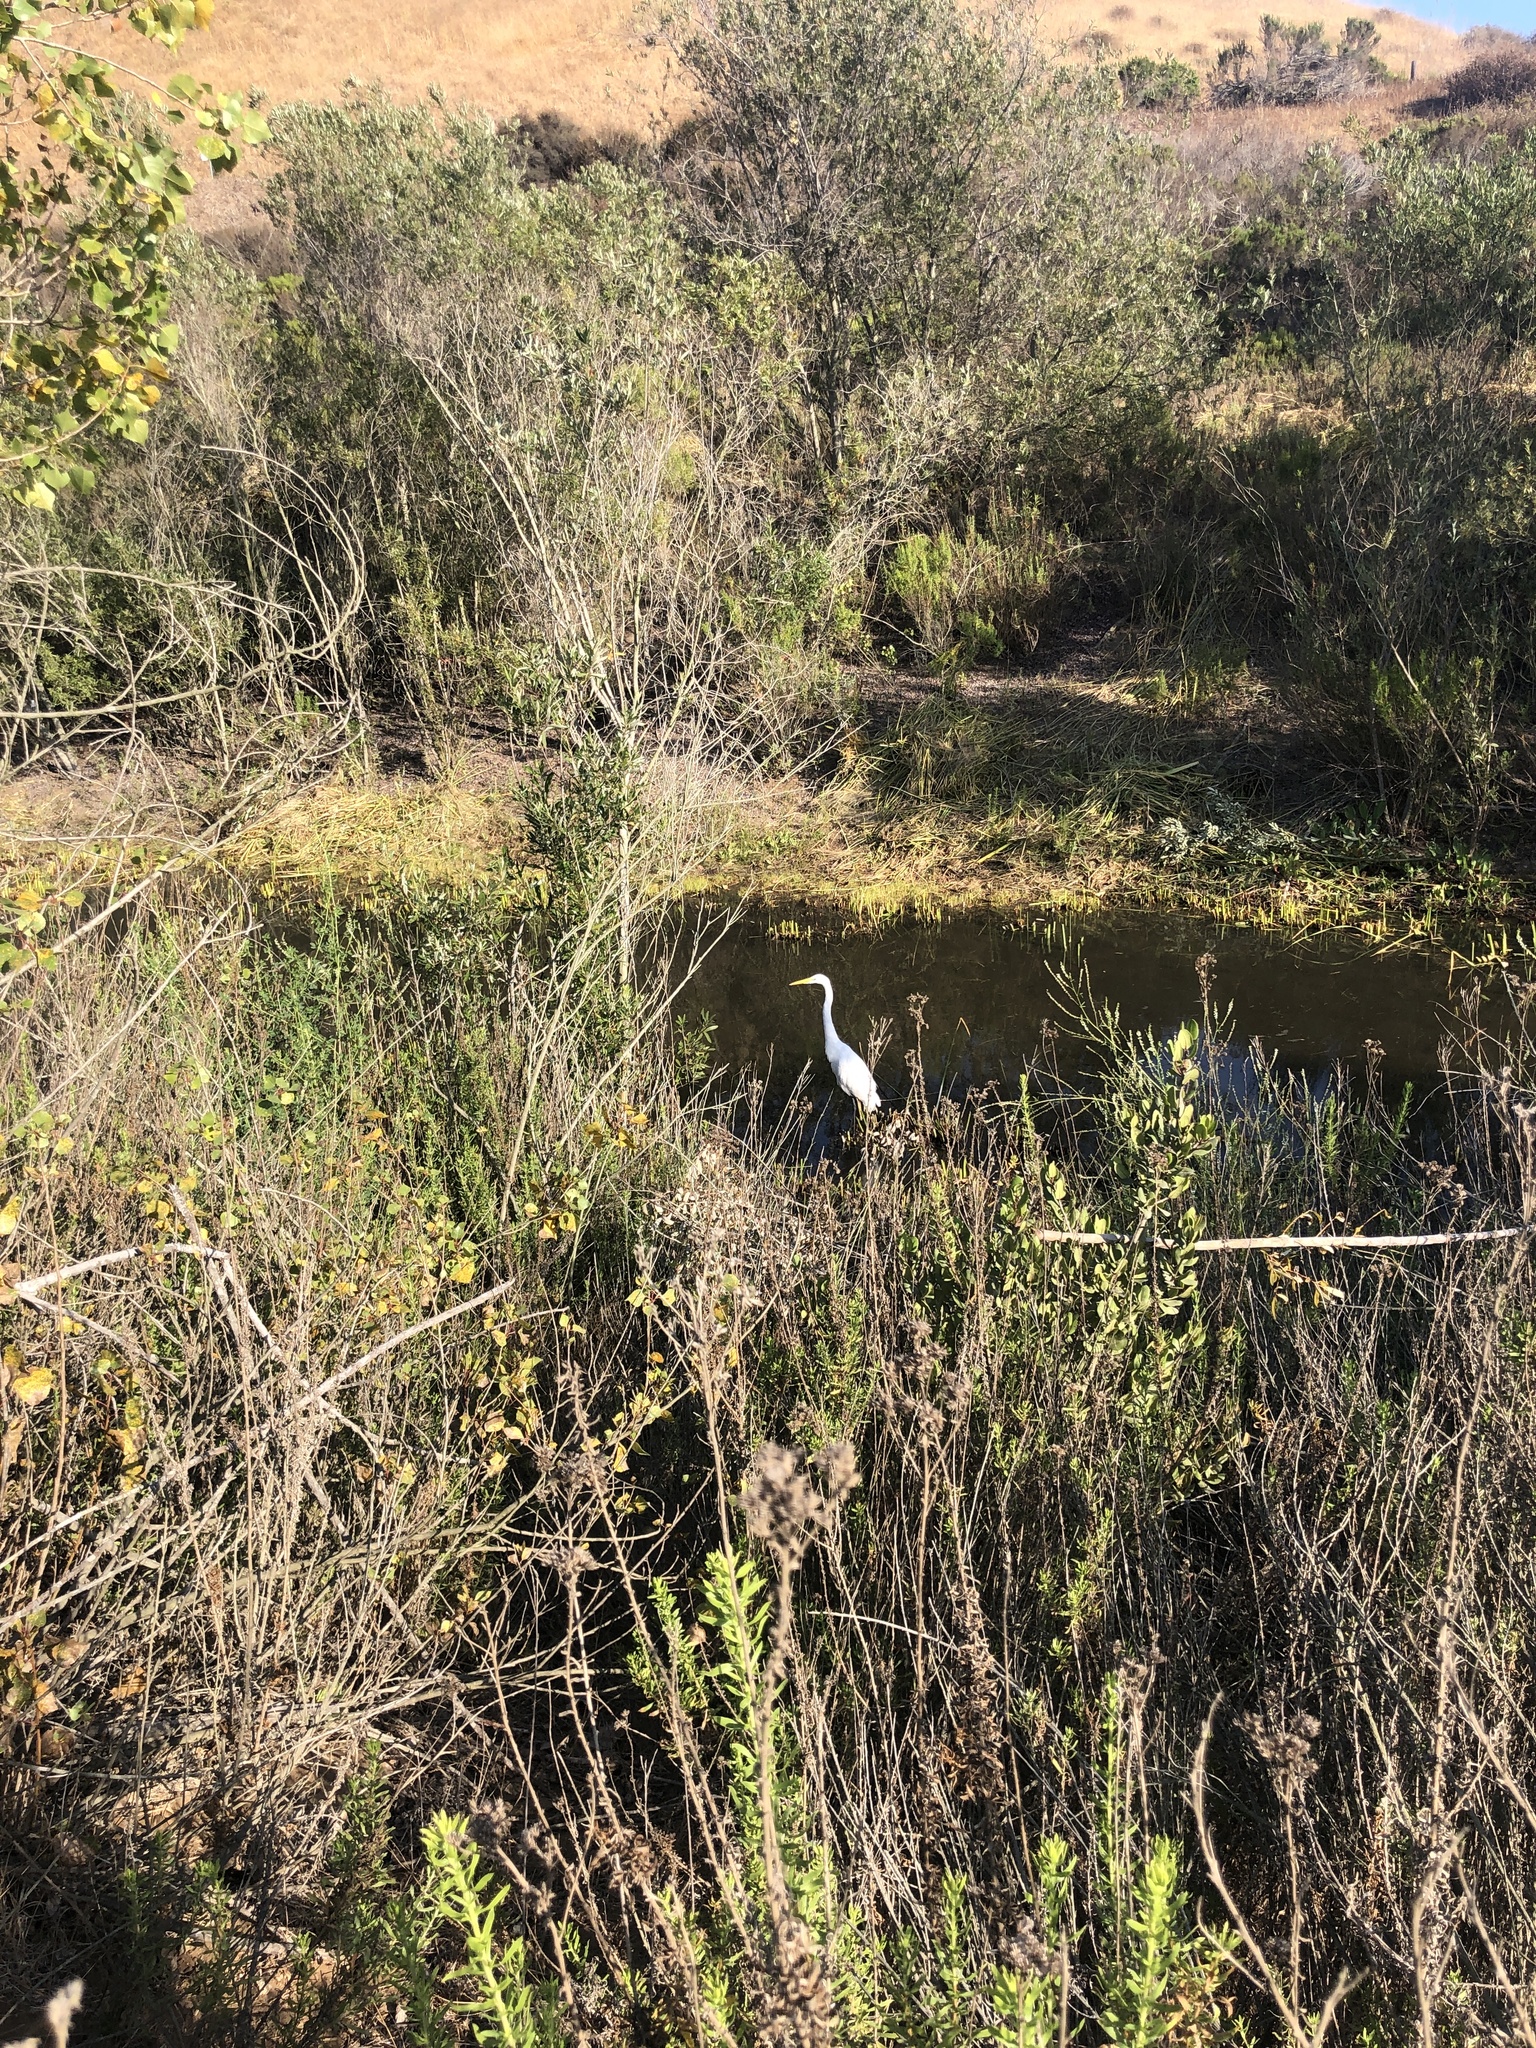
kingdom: Animalia
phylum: Chordata
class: Aves
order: Pelecaniformes
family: Ardeidae
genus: Ardea
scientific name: Ardea alba
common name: Great egret
